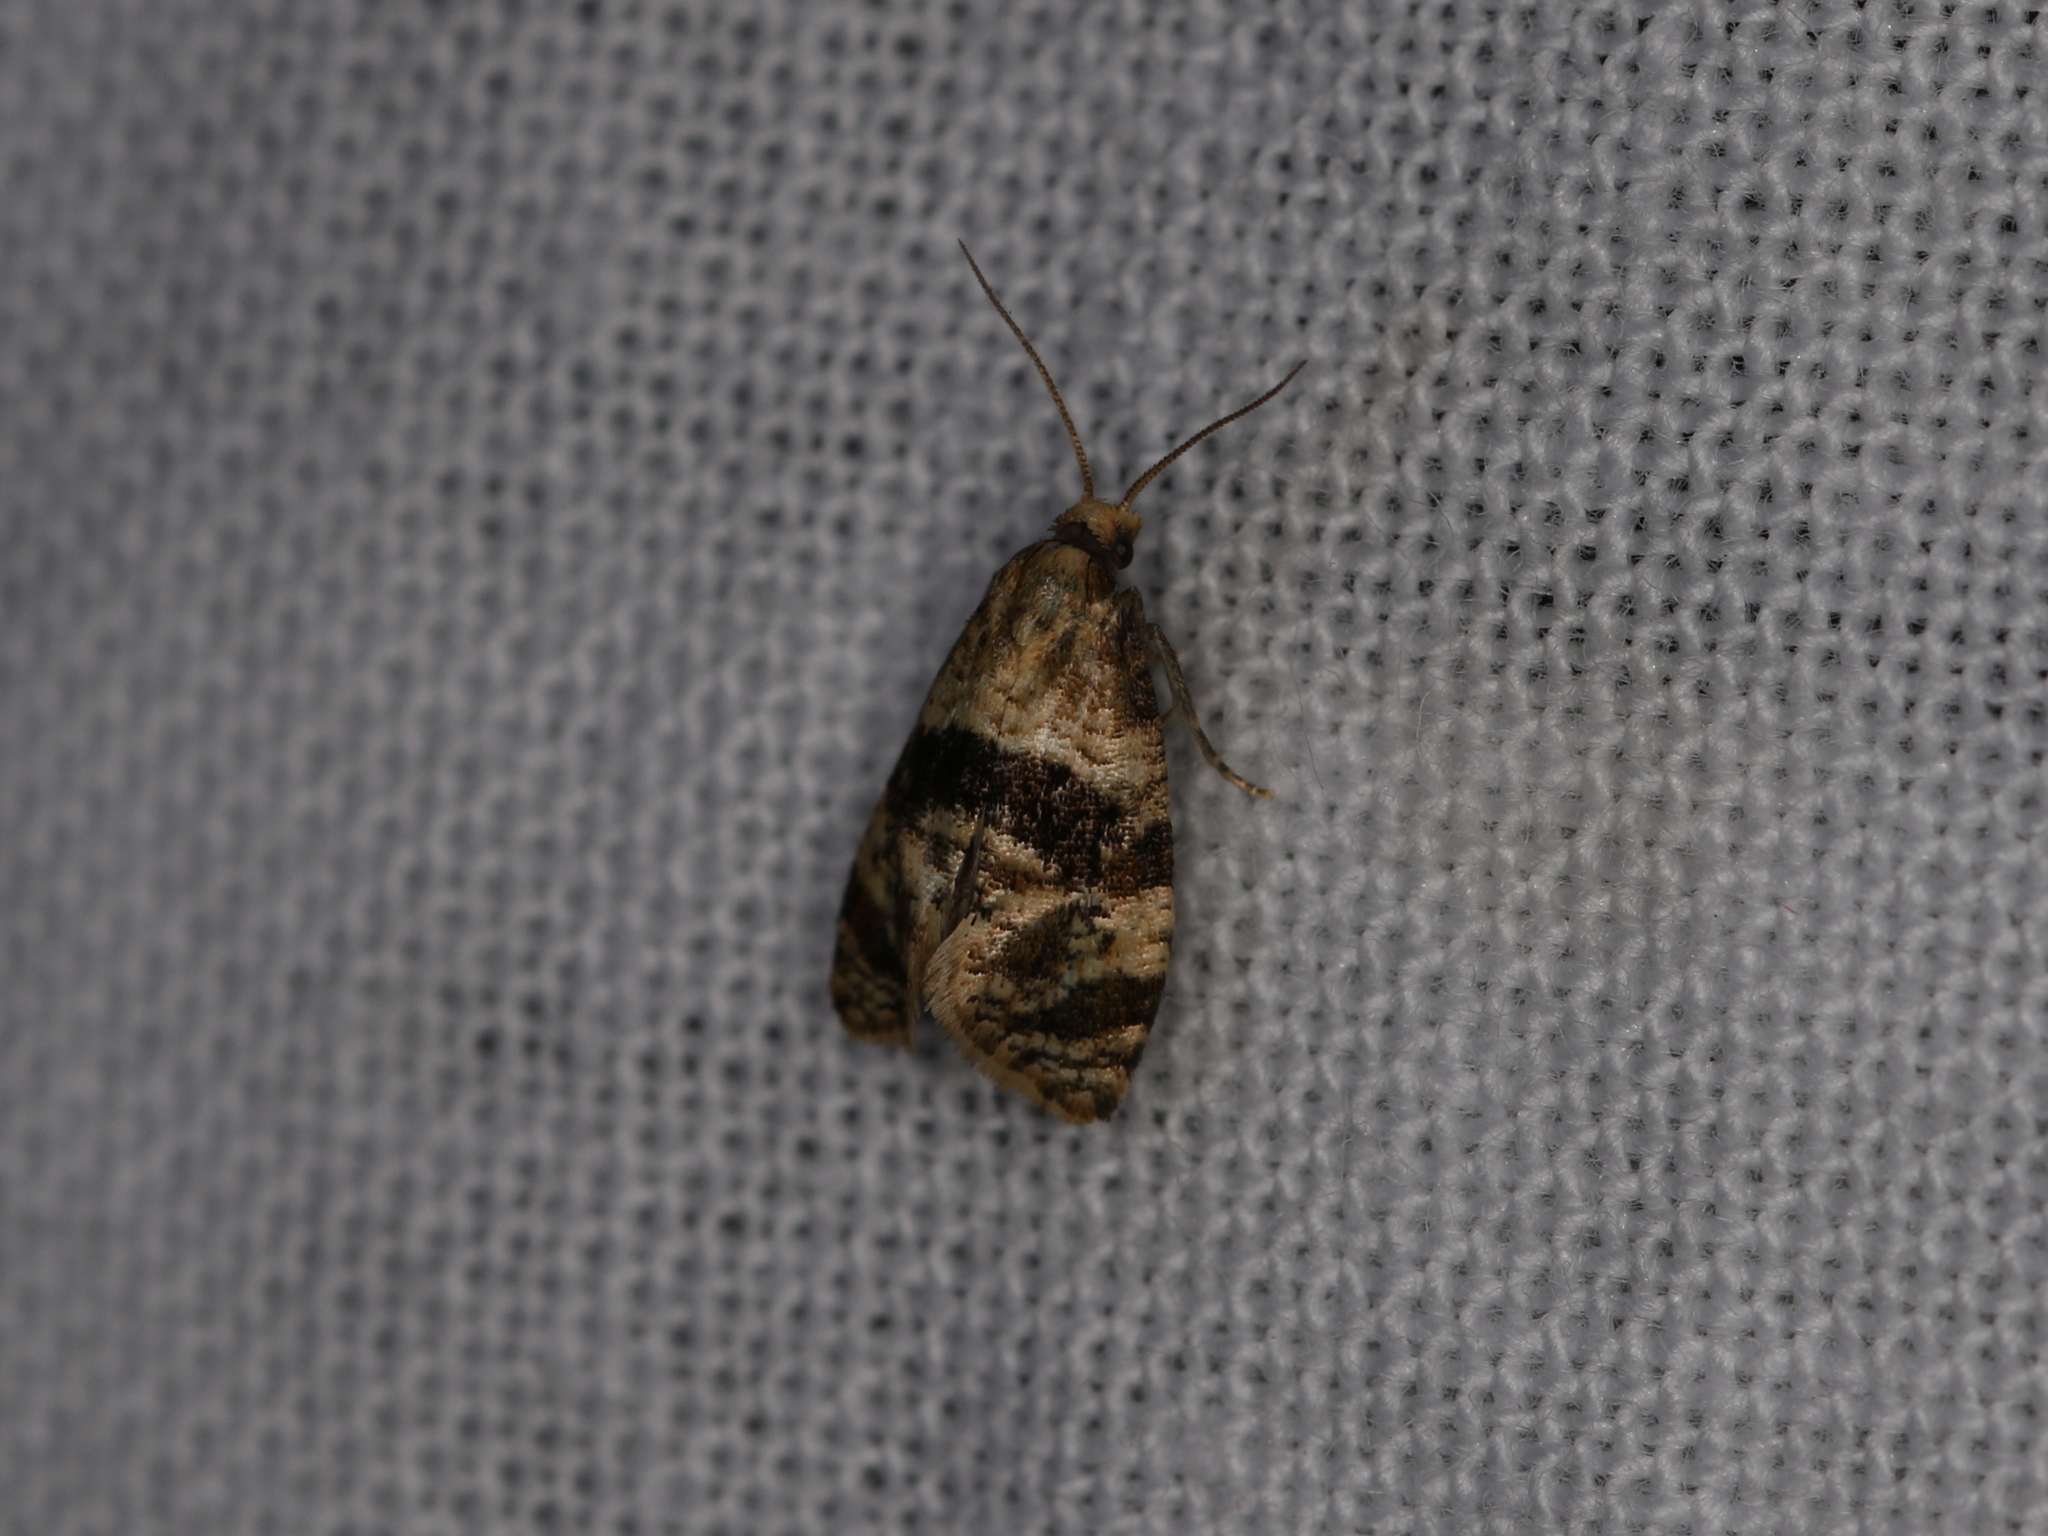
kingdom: Animalia
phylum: Arthropoda
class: Insecta
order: Lepidoptera
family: Tortricidae
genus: Phalonidia
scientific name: Phalonidia manniana
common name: Water-mint conch
